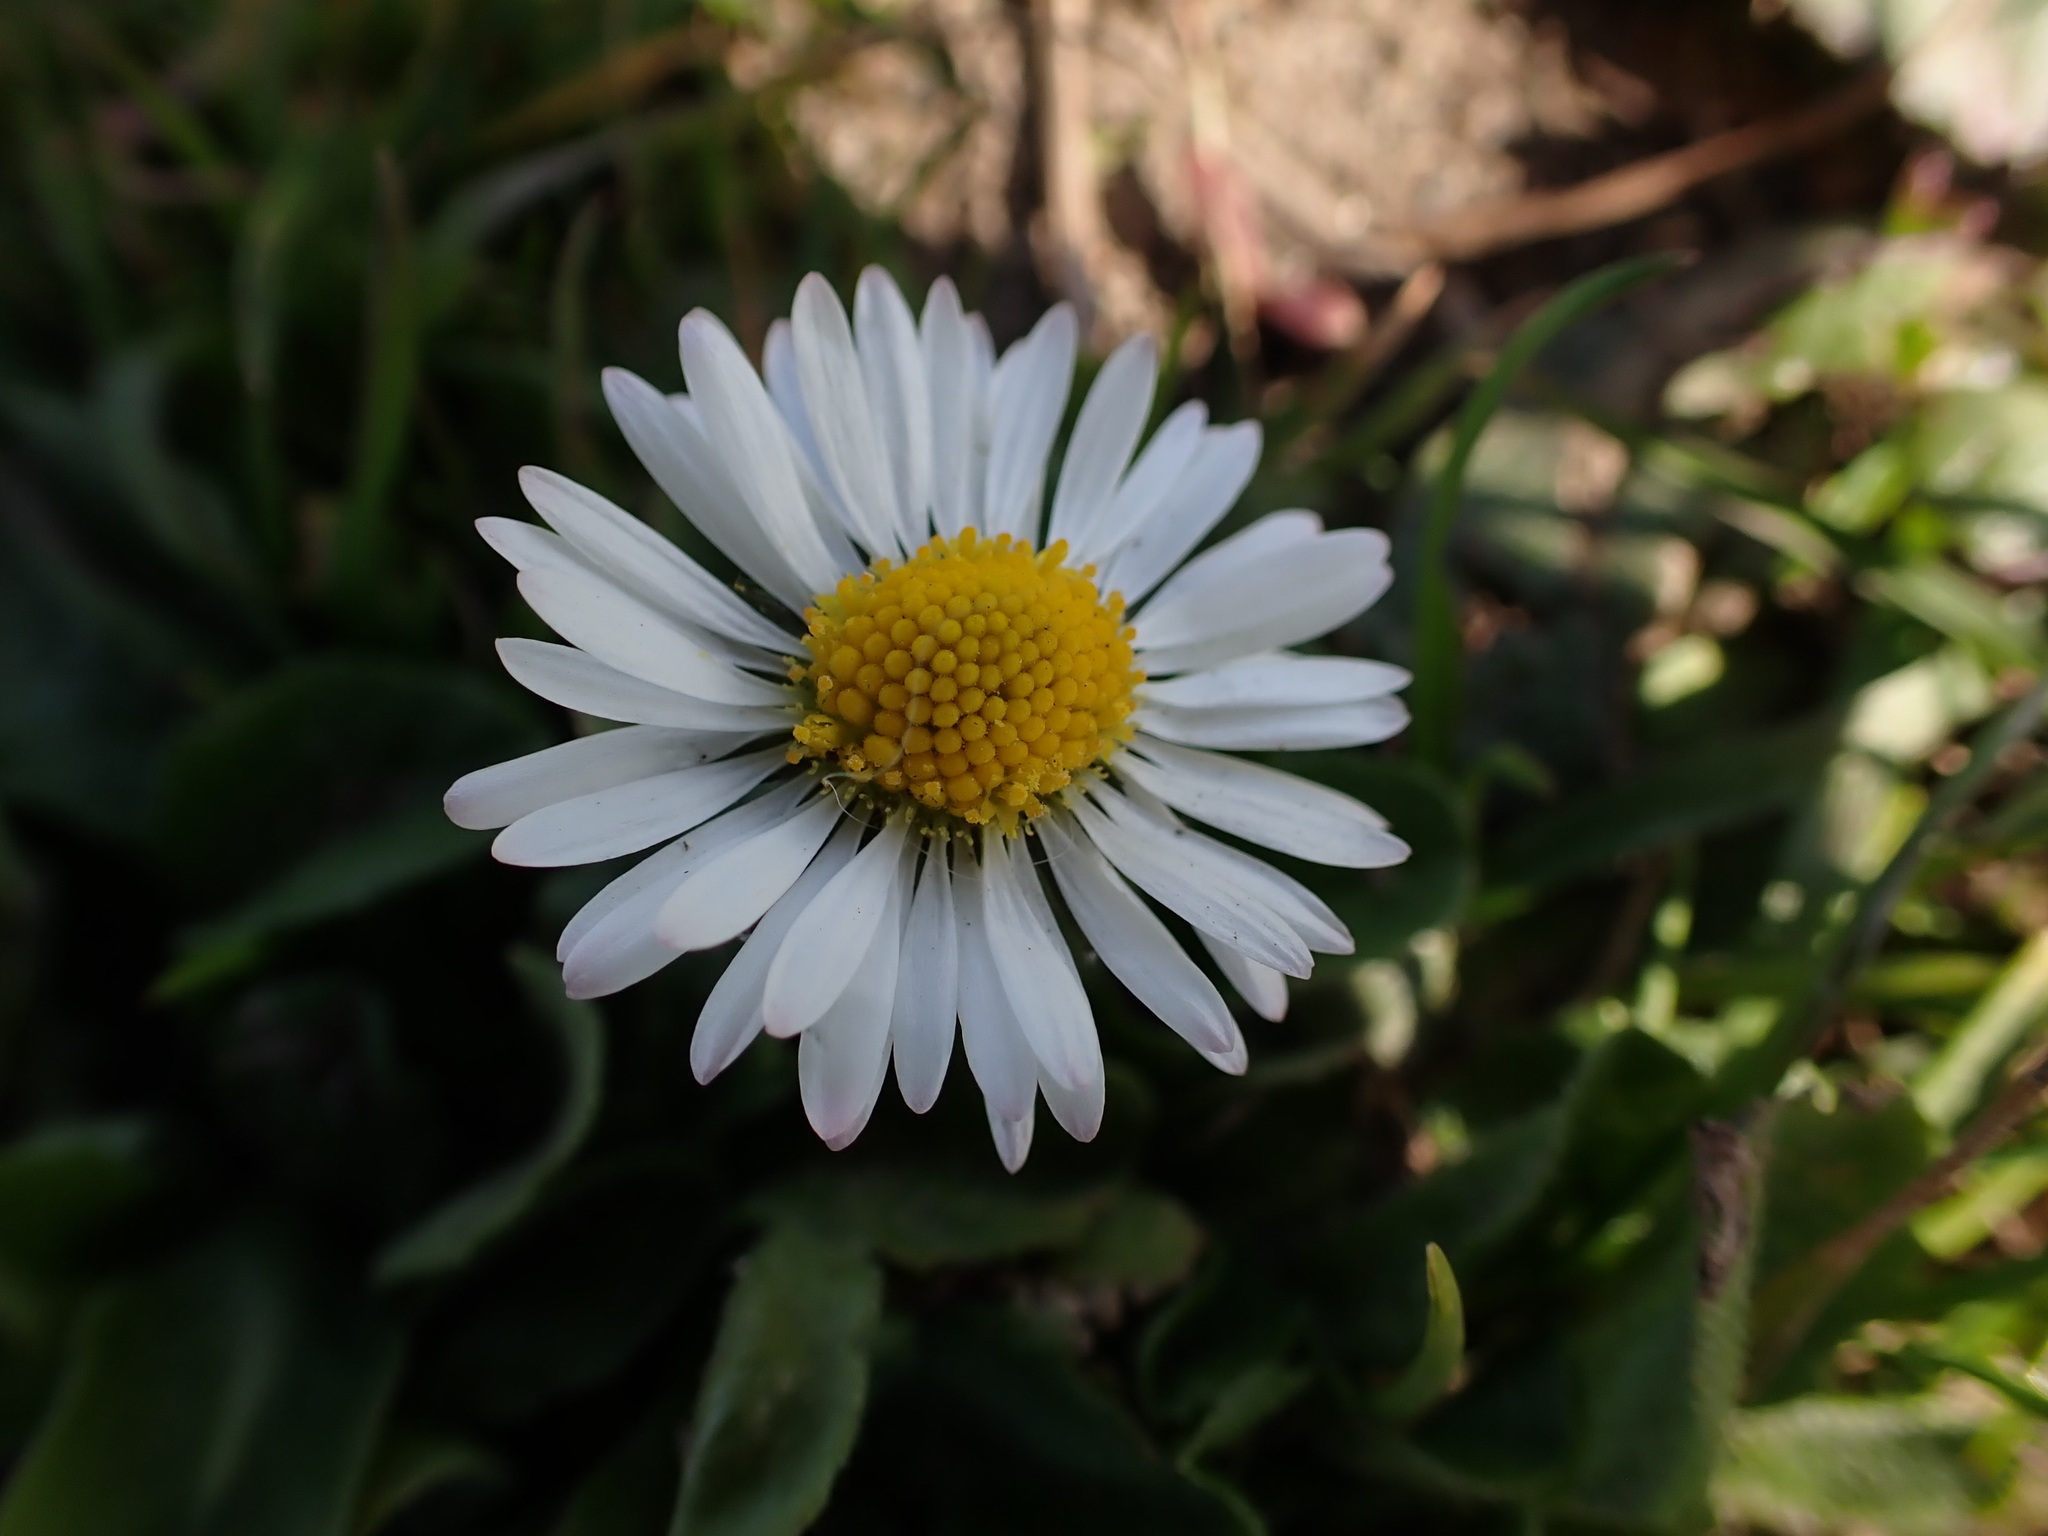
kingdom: Plantae
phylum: Tracheophyta
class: Magnoliopsida
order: Asterales
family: Asteraceae
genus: Bellis
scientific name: Bellis perennis
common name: Lawndaisy
